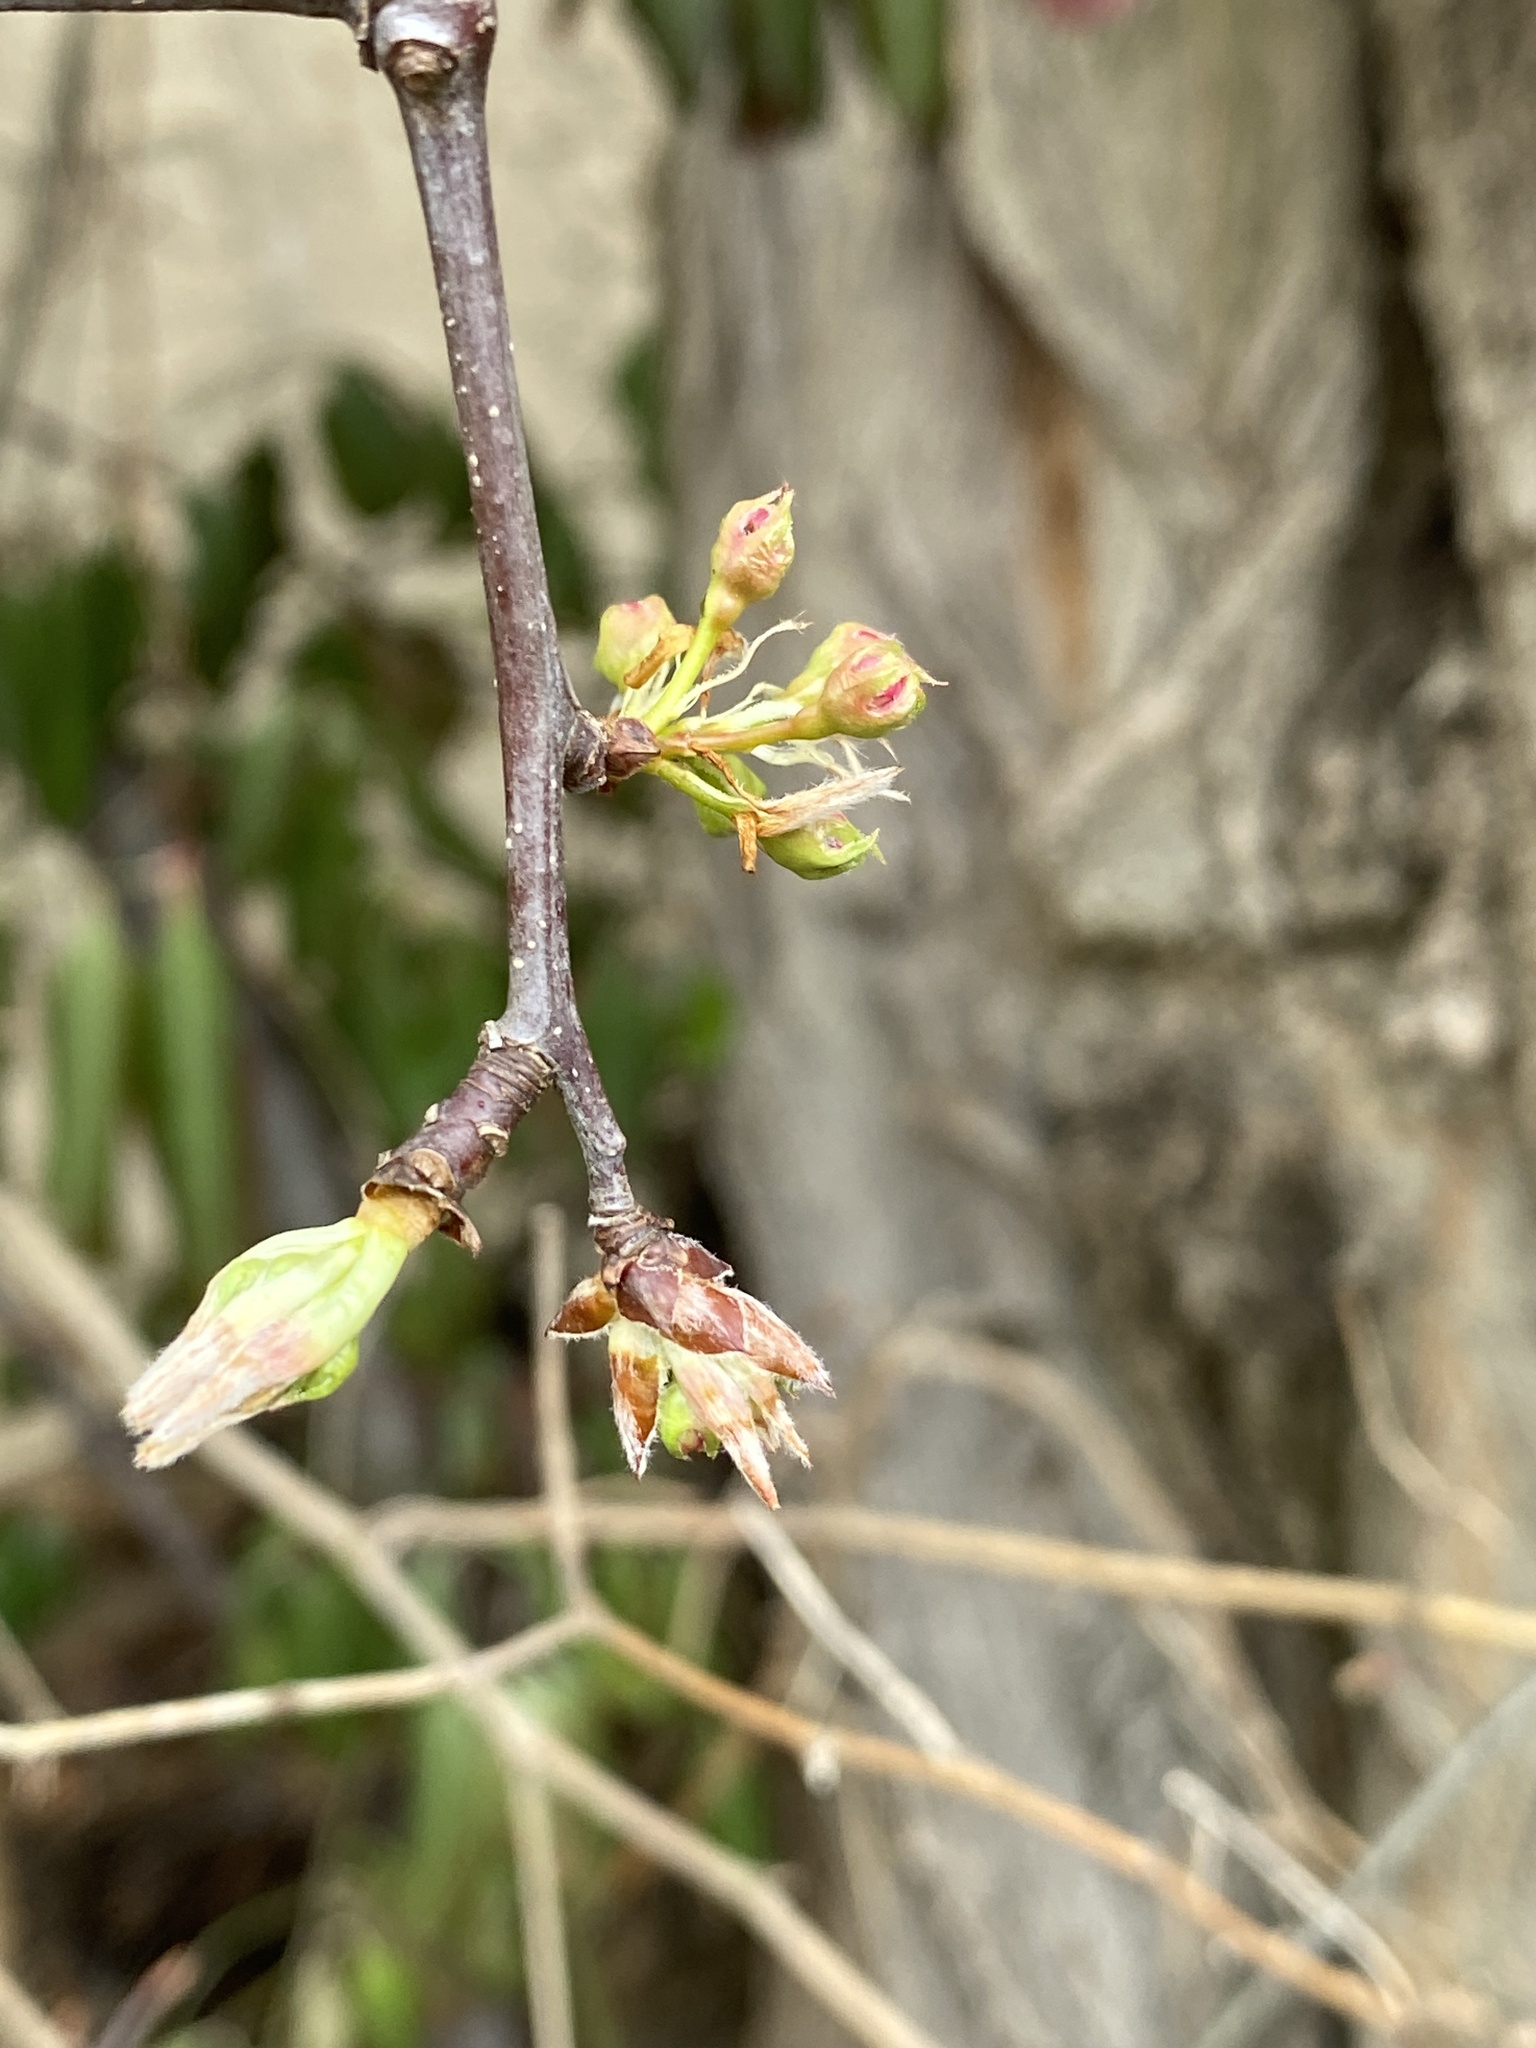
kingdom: Plantae
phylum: Tracheophyta
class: Magnoliopsida
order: Rosales
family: Rosaceae
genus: Pyrus
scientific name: Pyrus calleryana
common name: Callery pear
